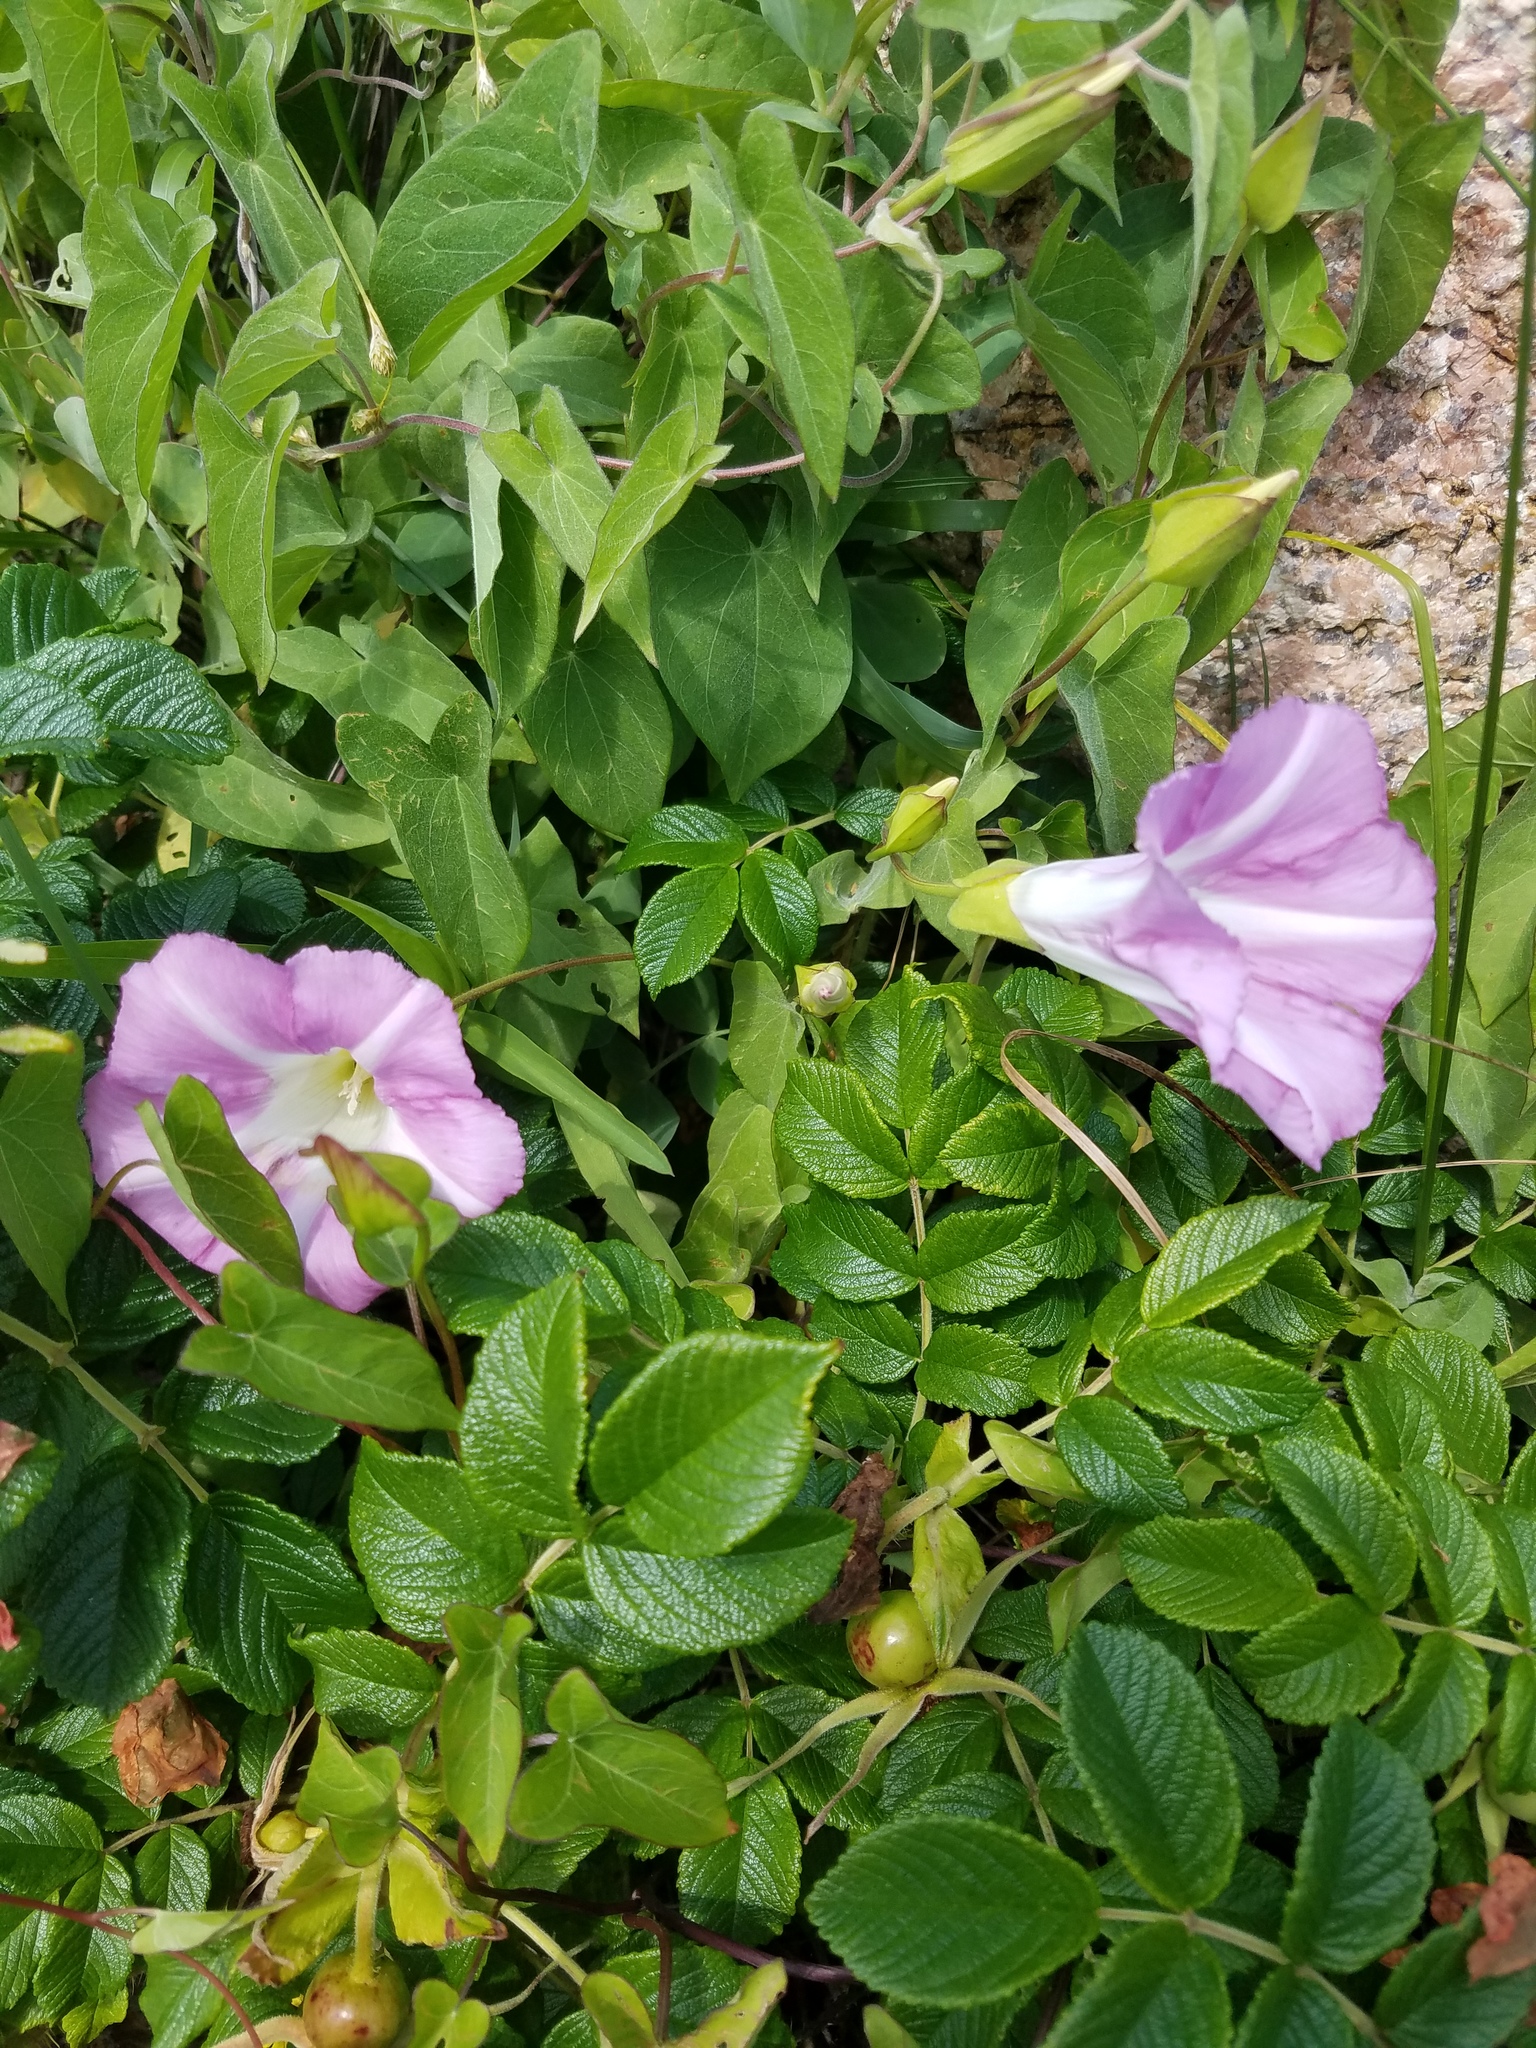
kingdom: Plantae
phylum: Tracheophyta
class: Magnoliopsida
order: Solanales
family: Convolvulaceae
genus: Calystegia
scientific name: Calystegia sepium
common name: Hedge bindweed
